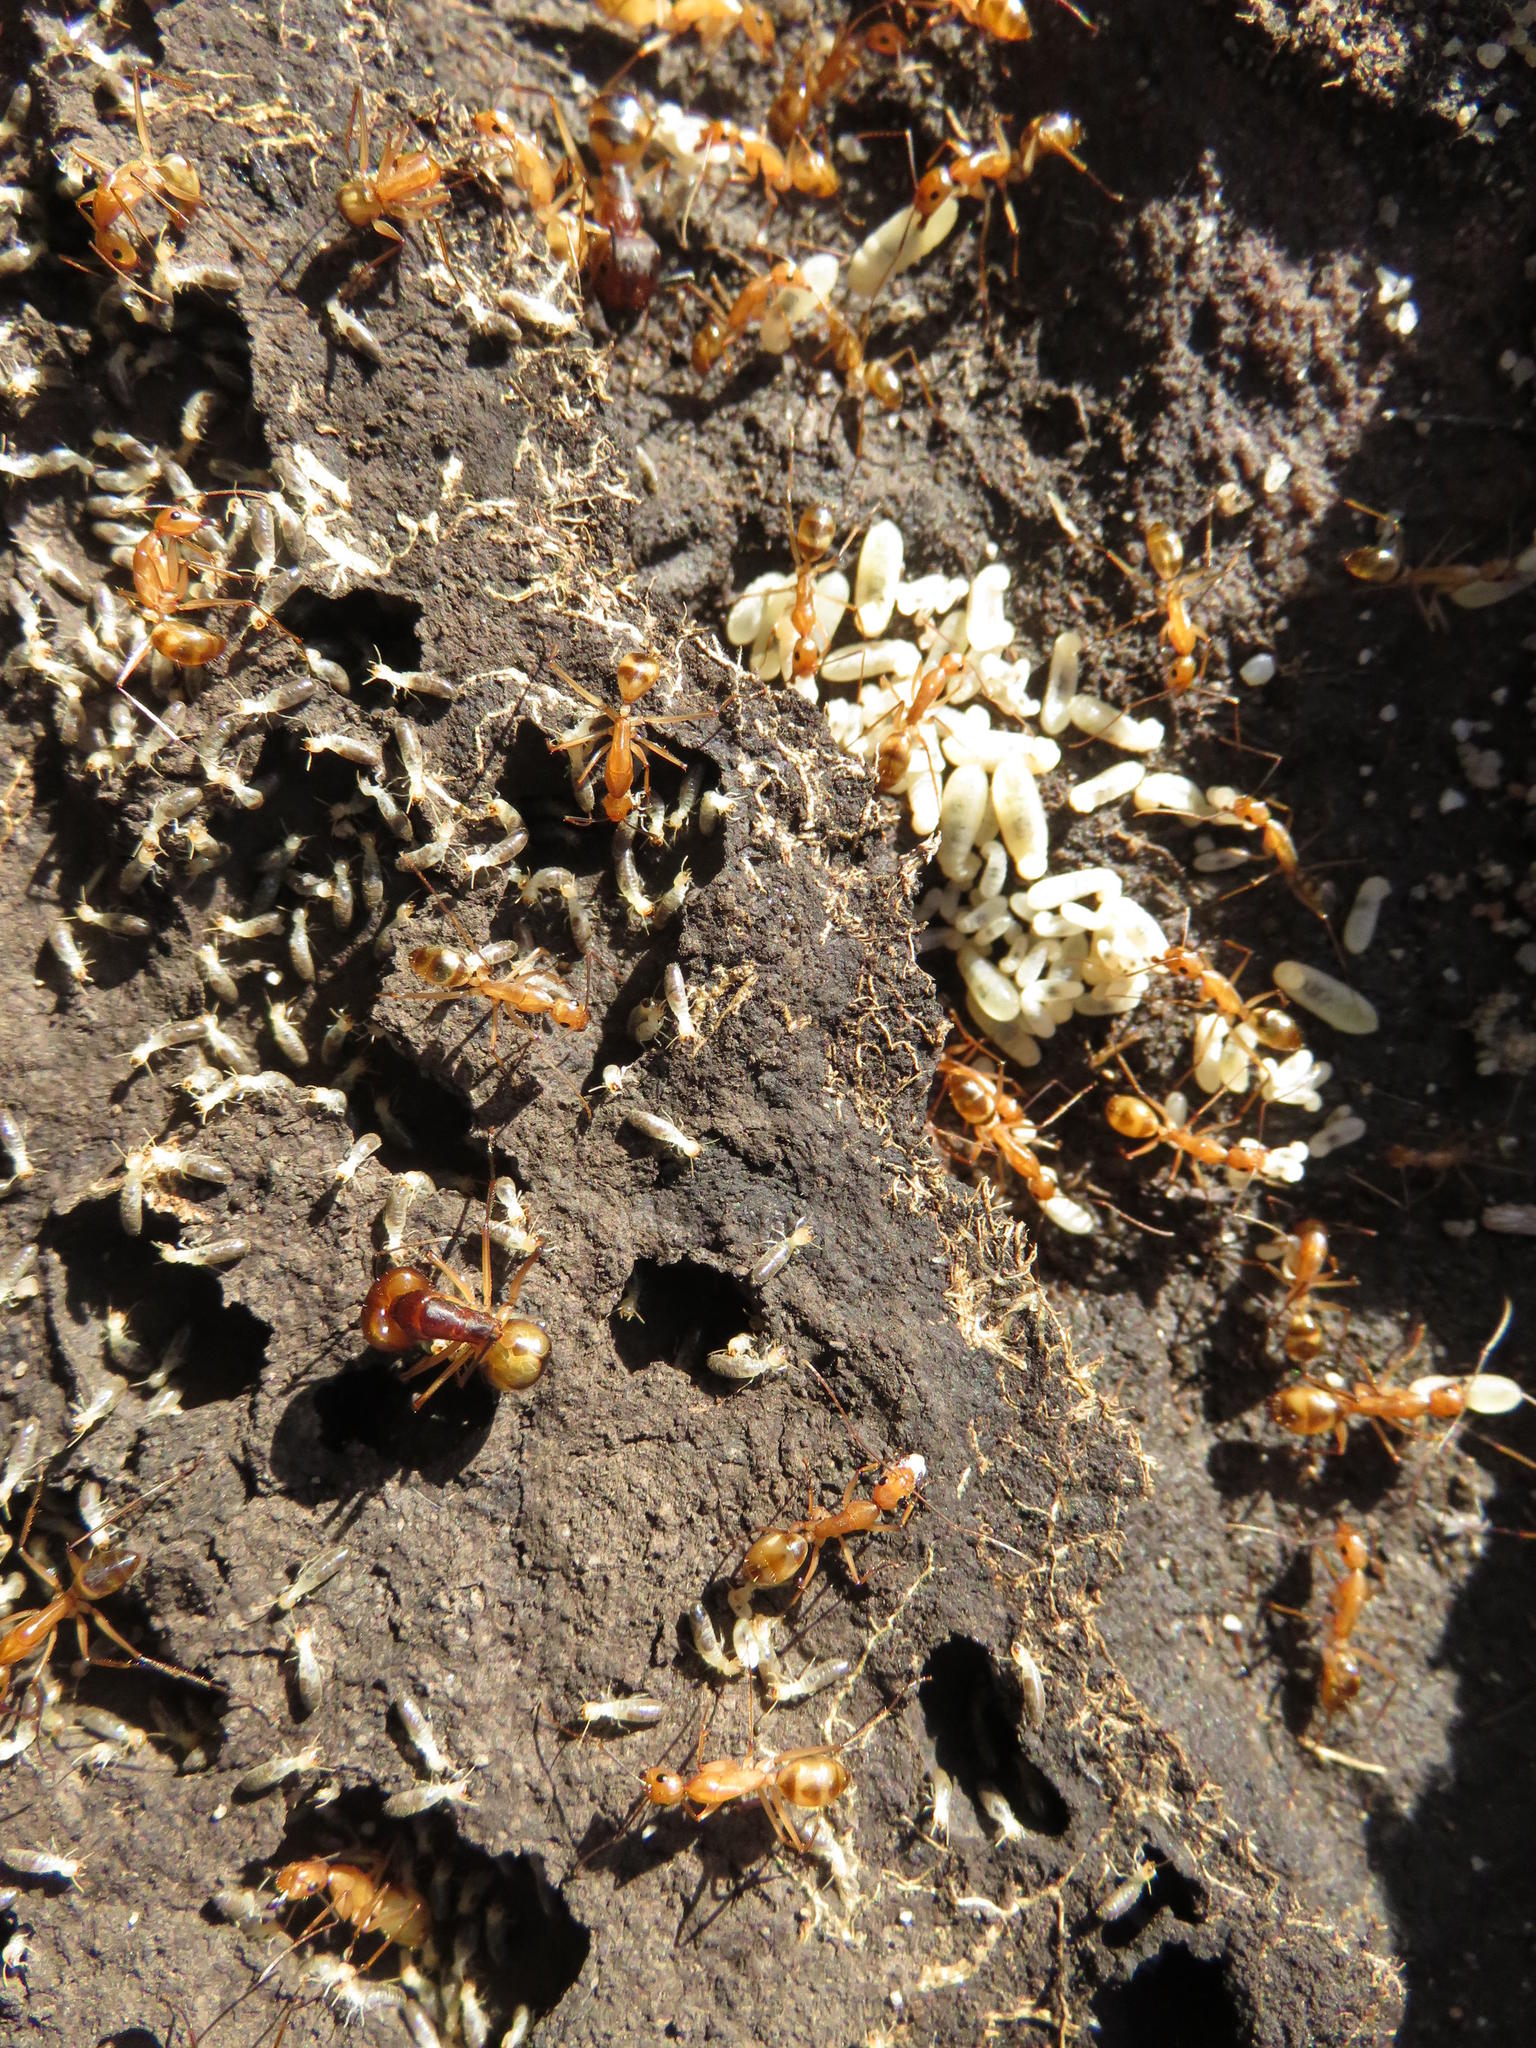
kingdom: Animalia
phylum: Arthropoda
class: Insecta
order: Hymenoptera
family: Formicidae
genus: Camponotus
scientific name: Camponotus maculatus
